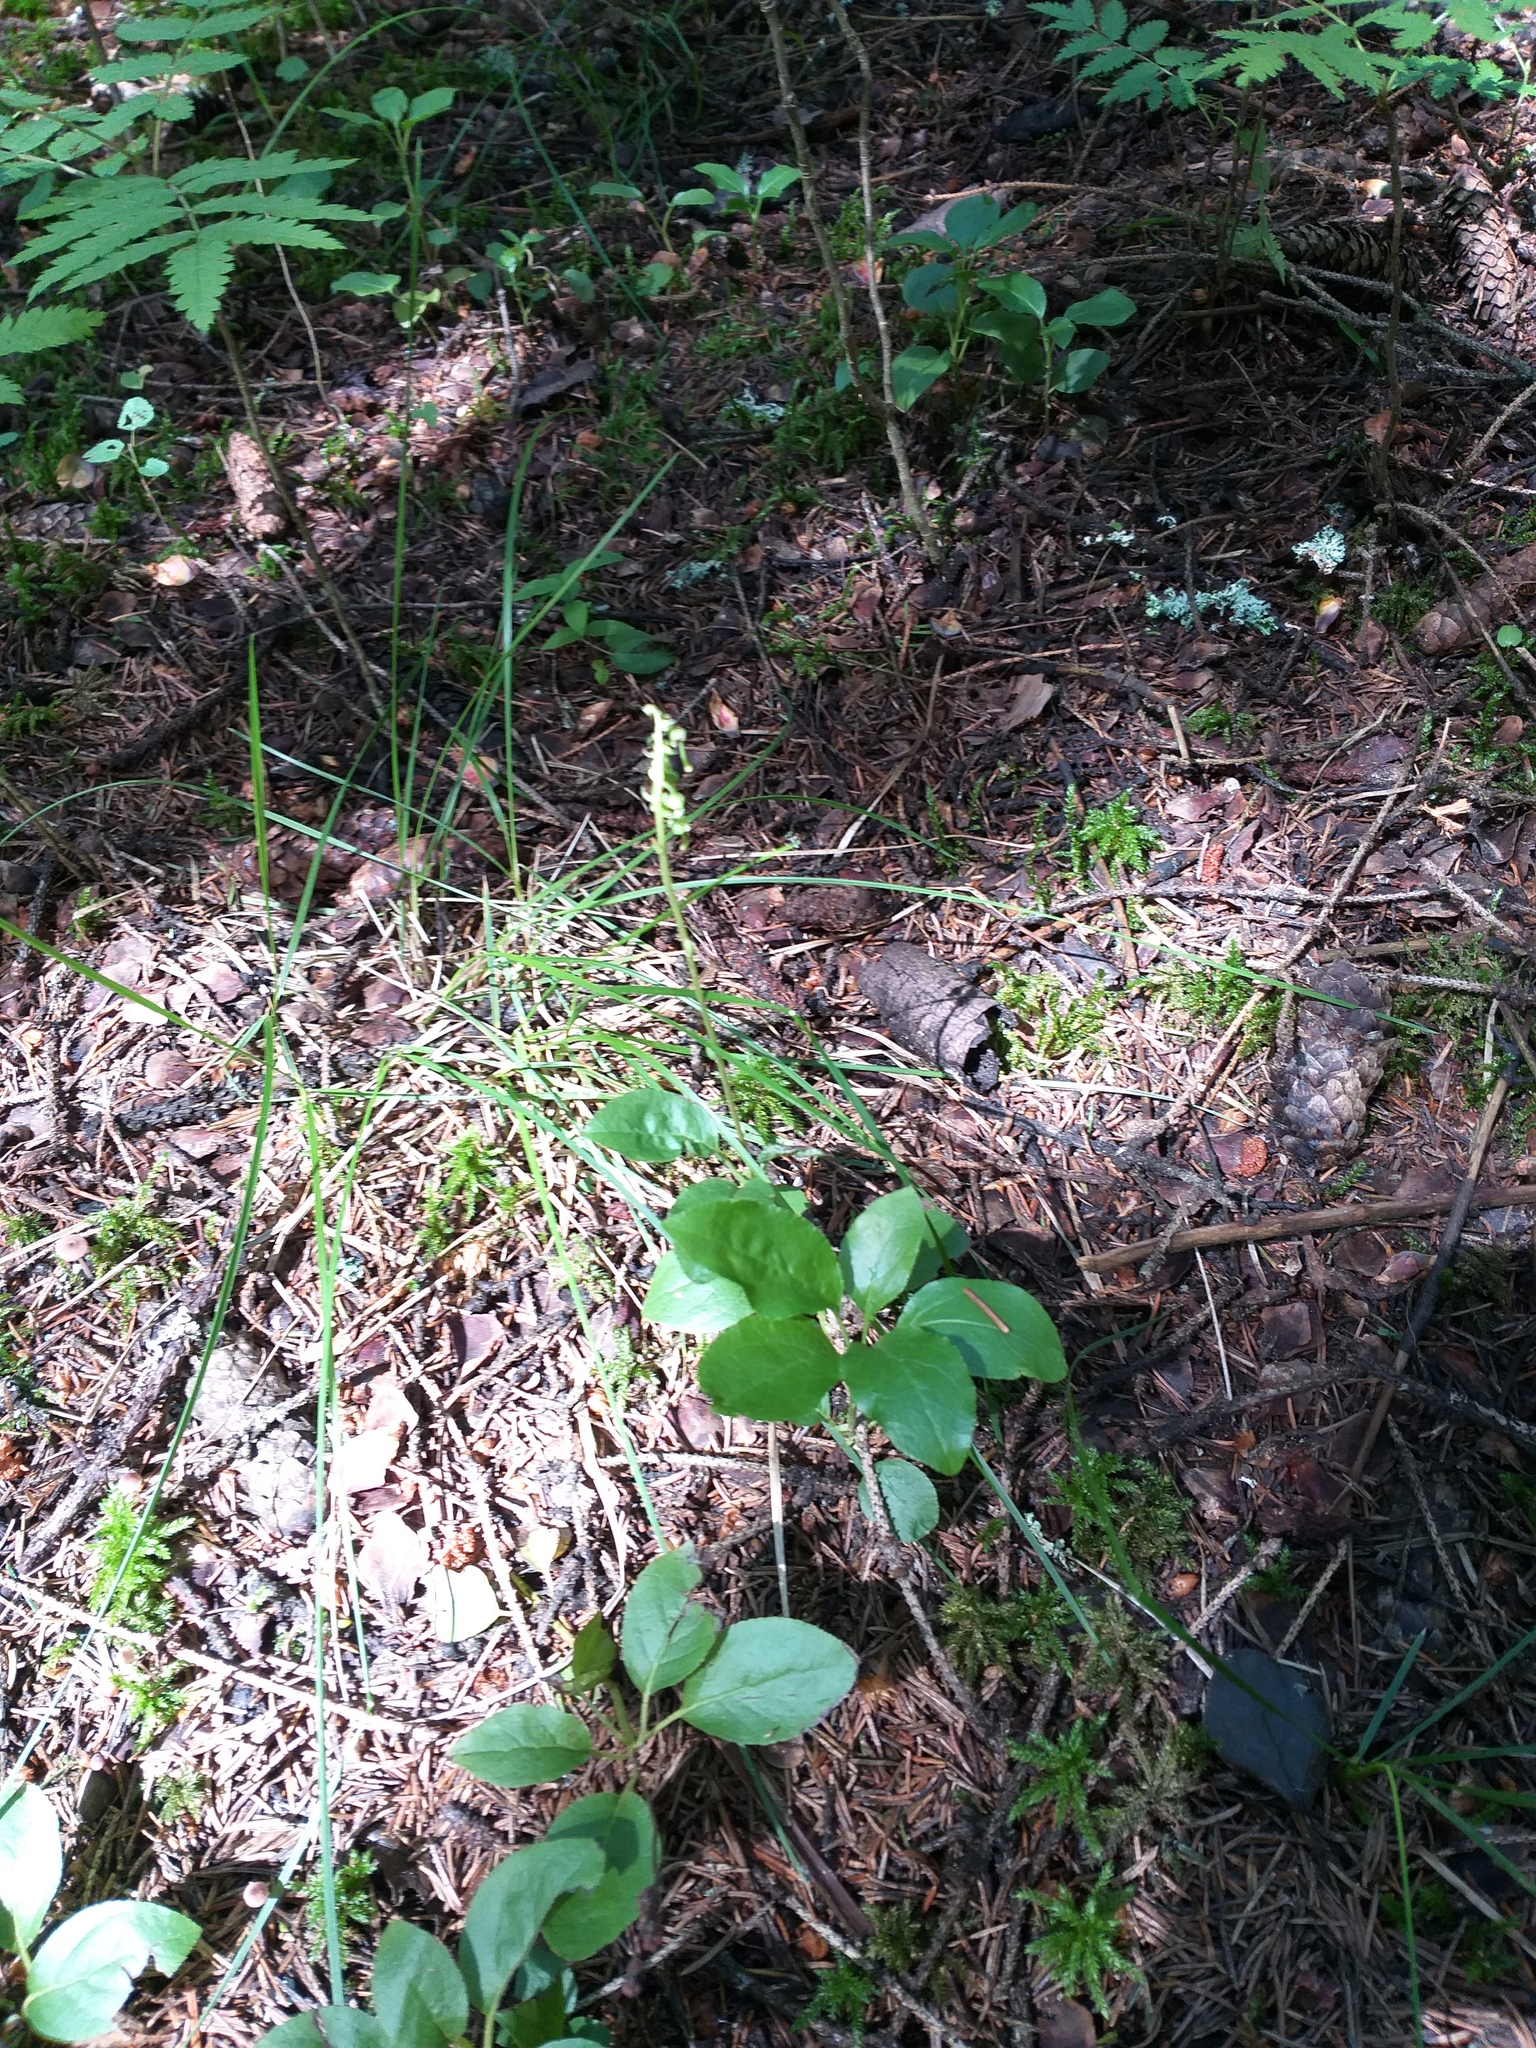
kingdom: Plantae
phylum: Tracheophyta
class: Magnoliopsida
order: Ericales
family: Ericaceae
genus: Orthilia
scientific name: Orthilia secunda
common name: One-sided orthilia
